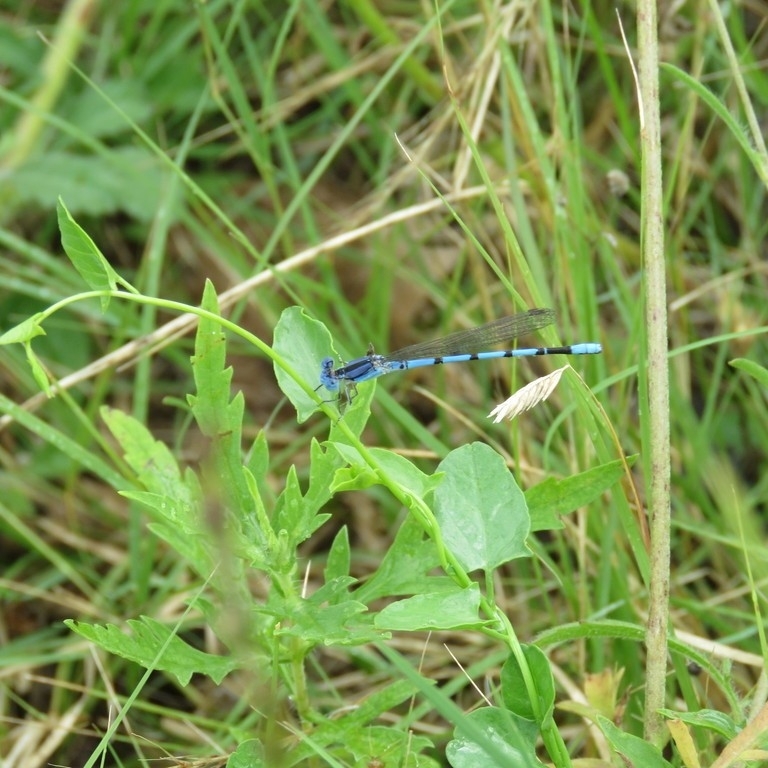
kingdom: Animalia
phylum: Arthropoda
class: Insecta
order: Odonata
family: Coenagrionidae
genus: Argia
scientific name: Argia nahuana
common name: Aztec dancer
